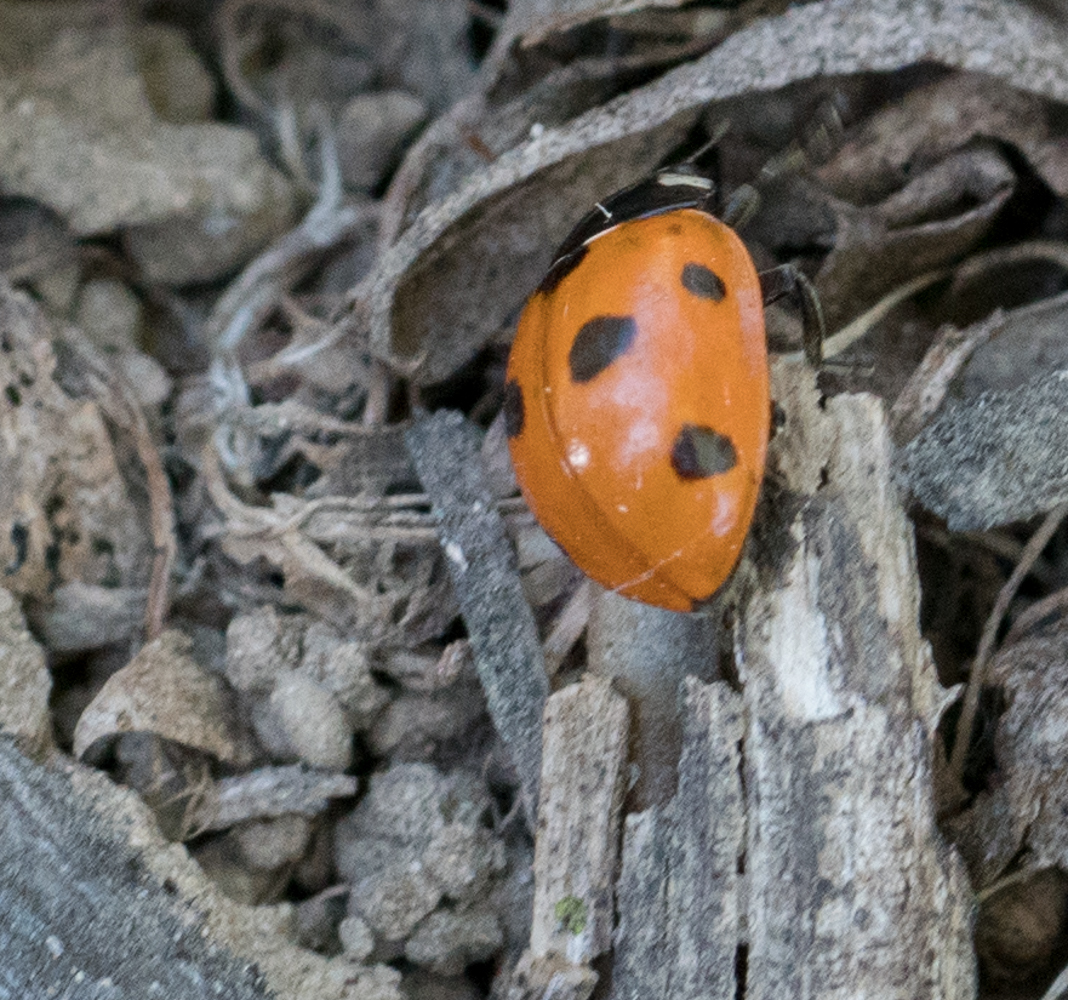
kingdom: Animalia
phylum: Arthropoda
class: Insecta
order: Coleoptera
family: Coccinellidae
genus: Coccinella
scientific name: Coccinella septempunctata
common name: Sevenspotted lady beetle
